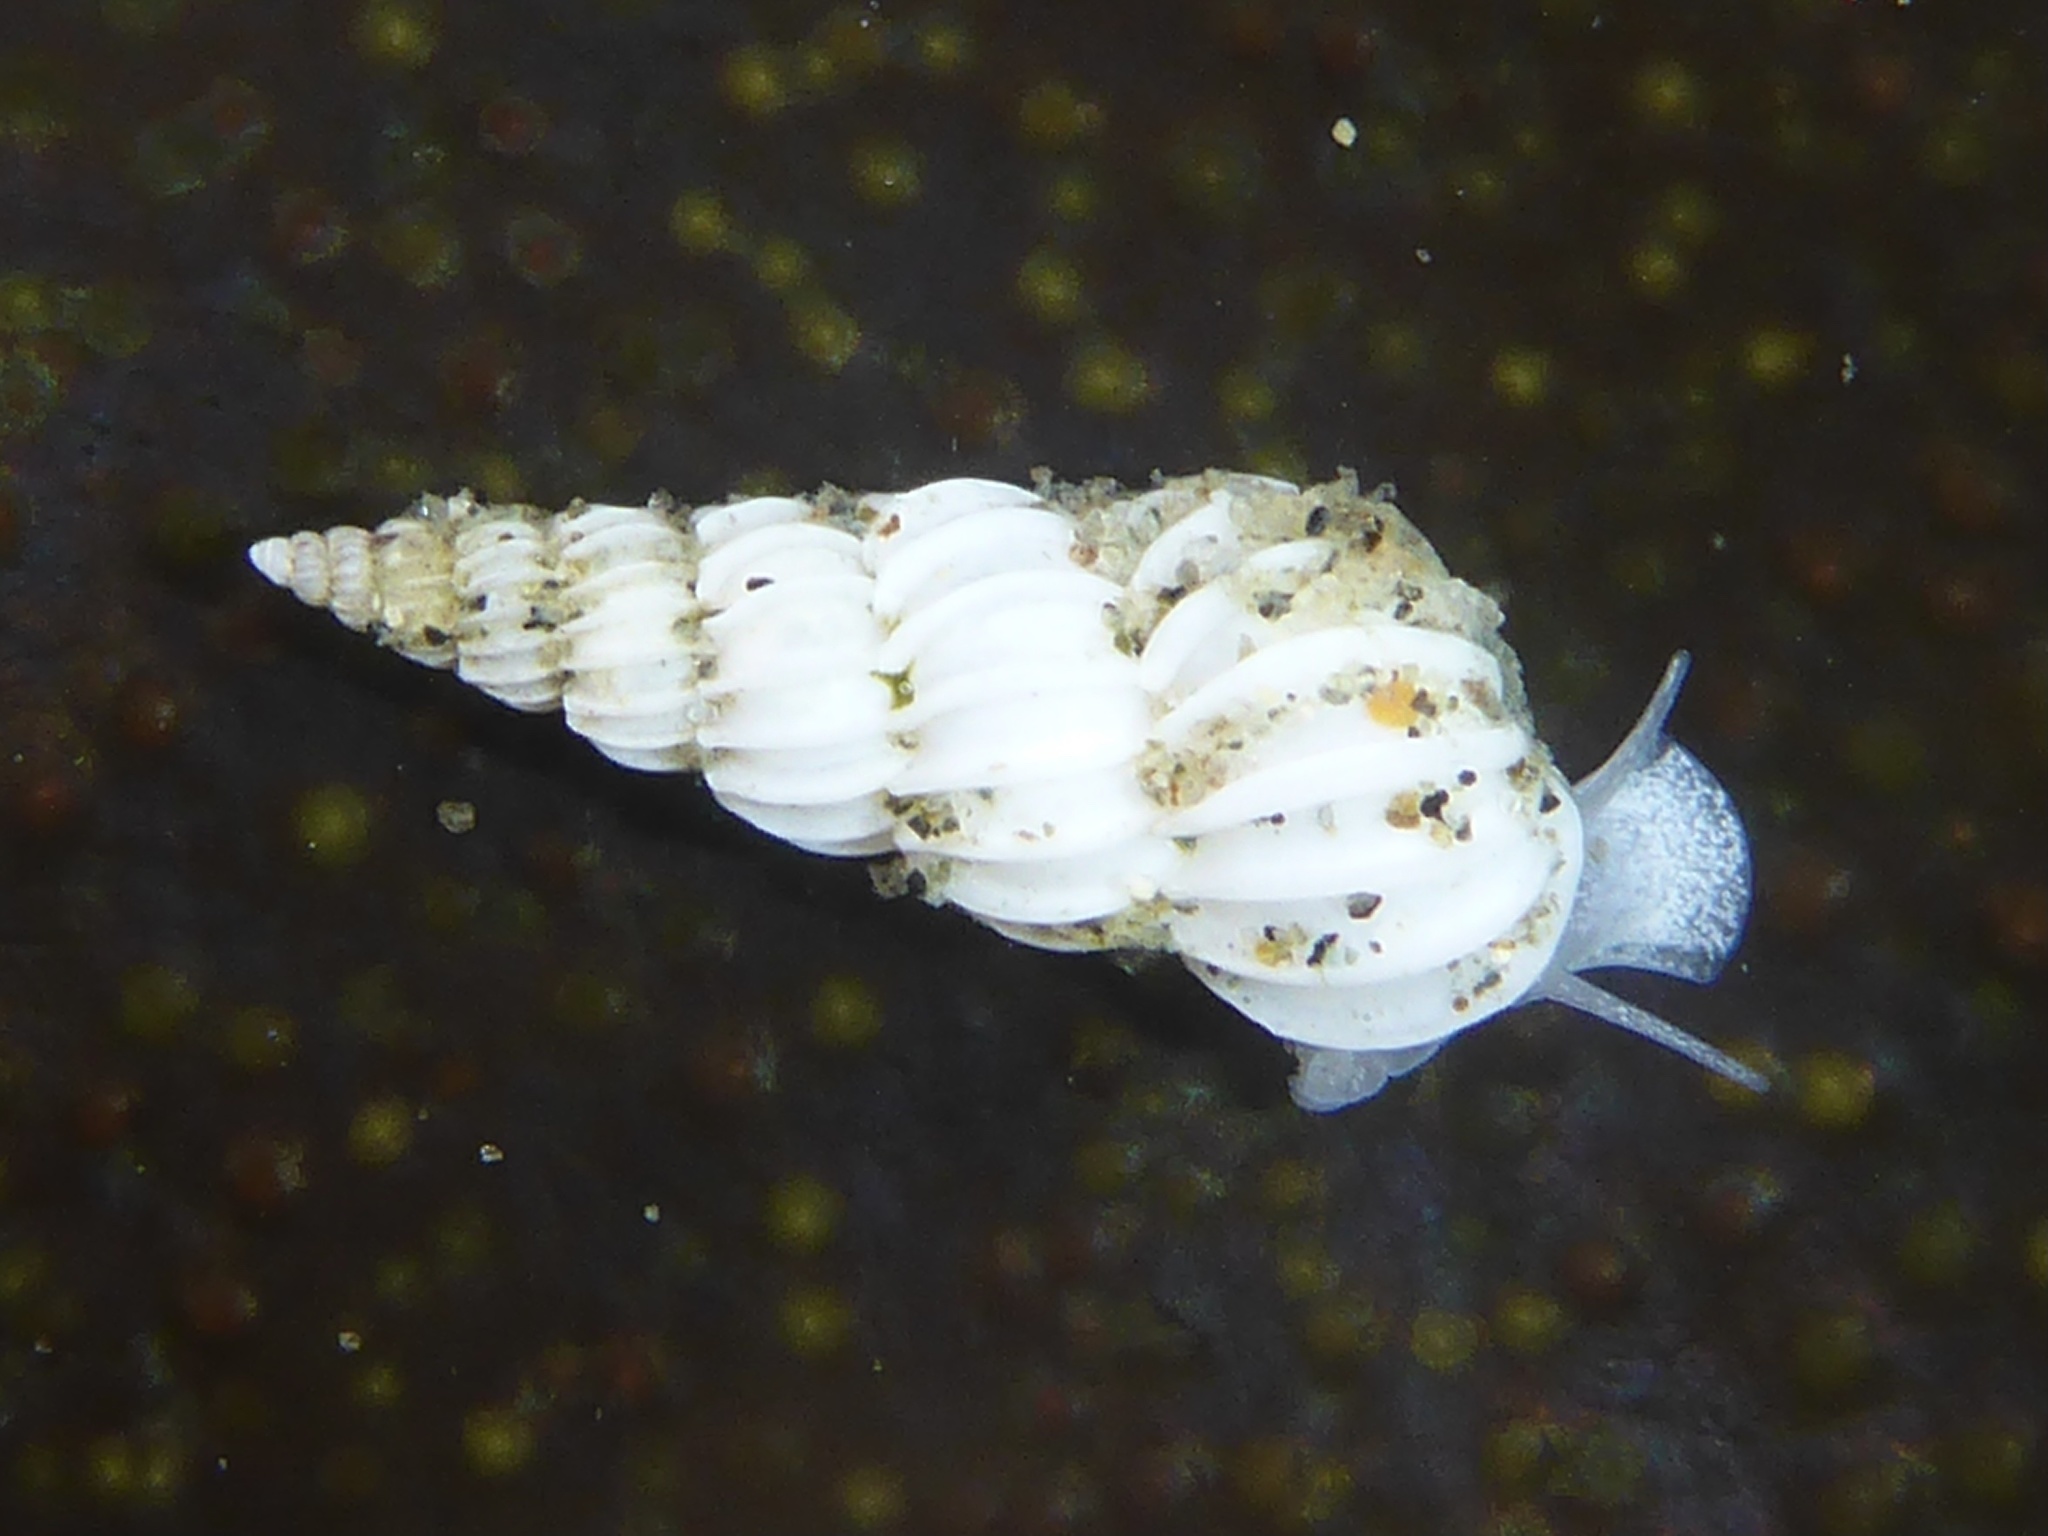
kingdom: Animalia
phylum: Mollusca
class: Gastropoda
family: Epitoniidae
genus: Epitonium
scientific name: Epitonium tinctum
